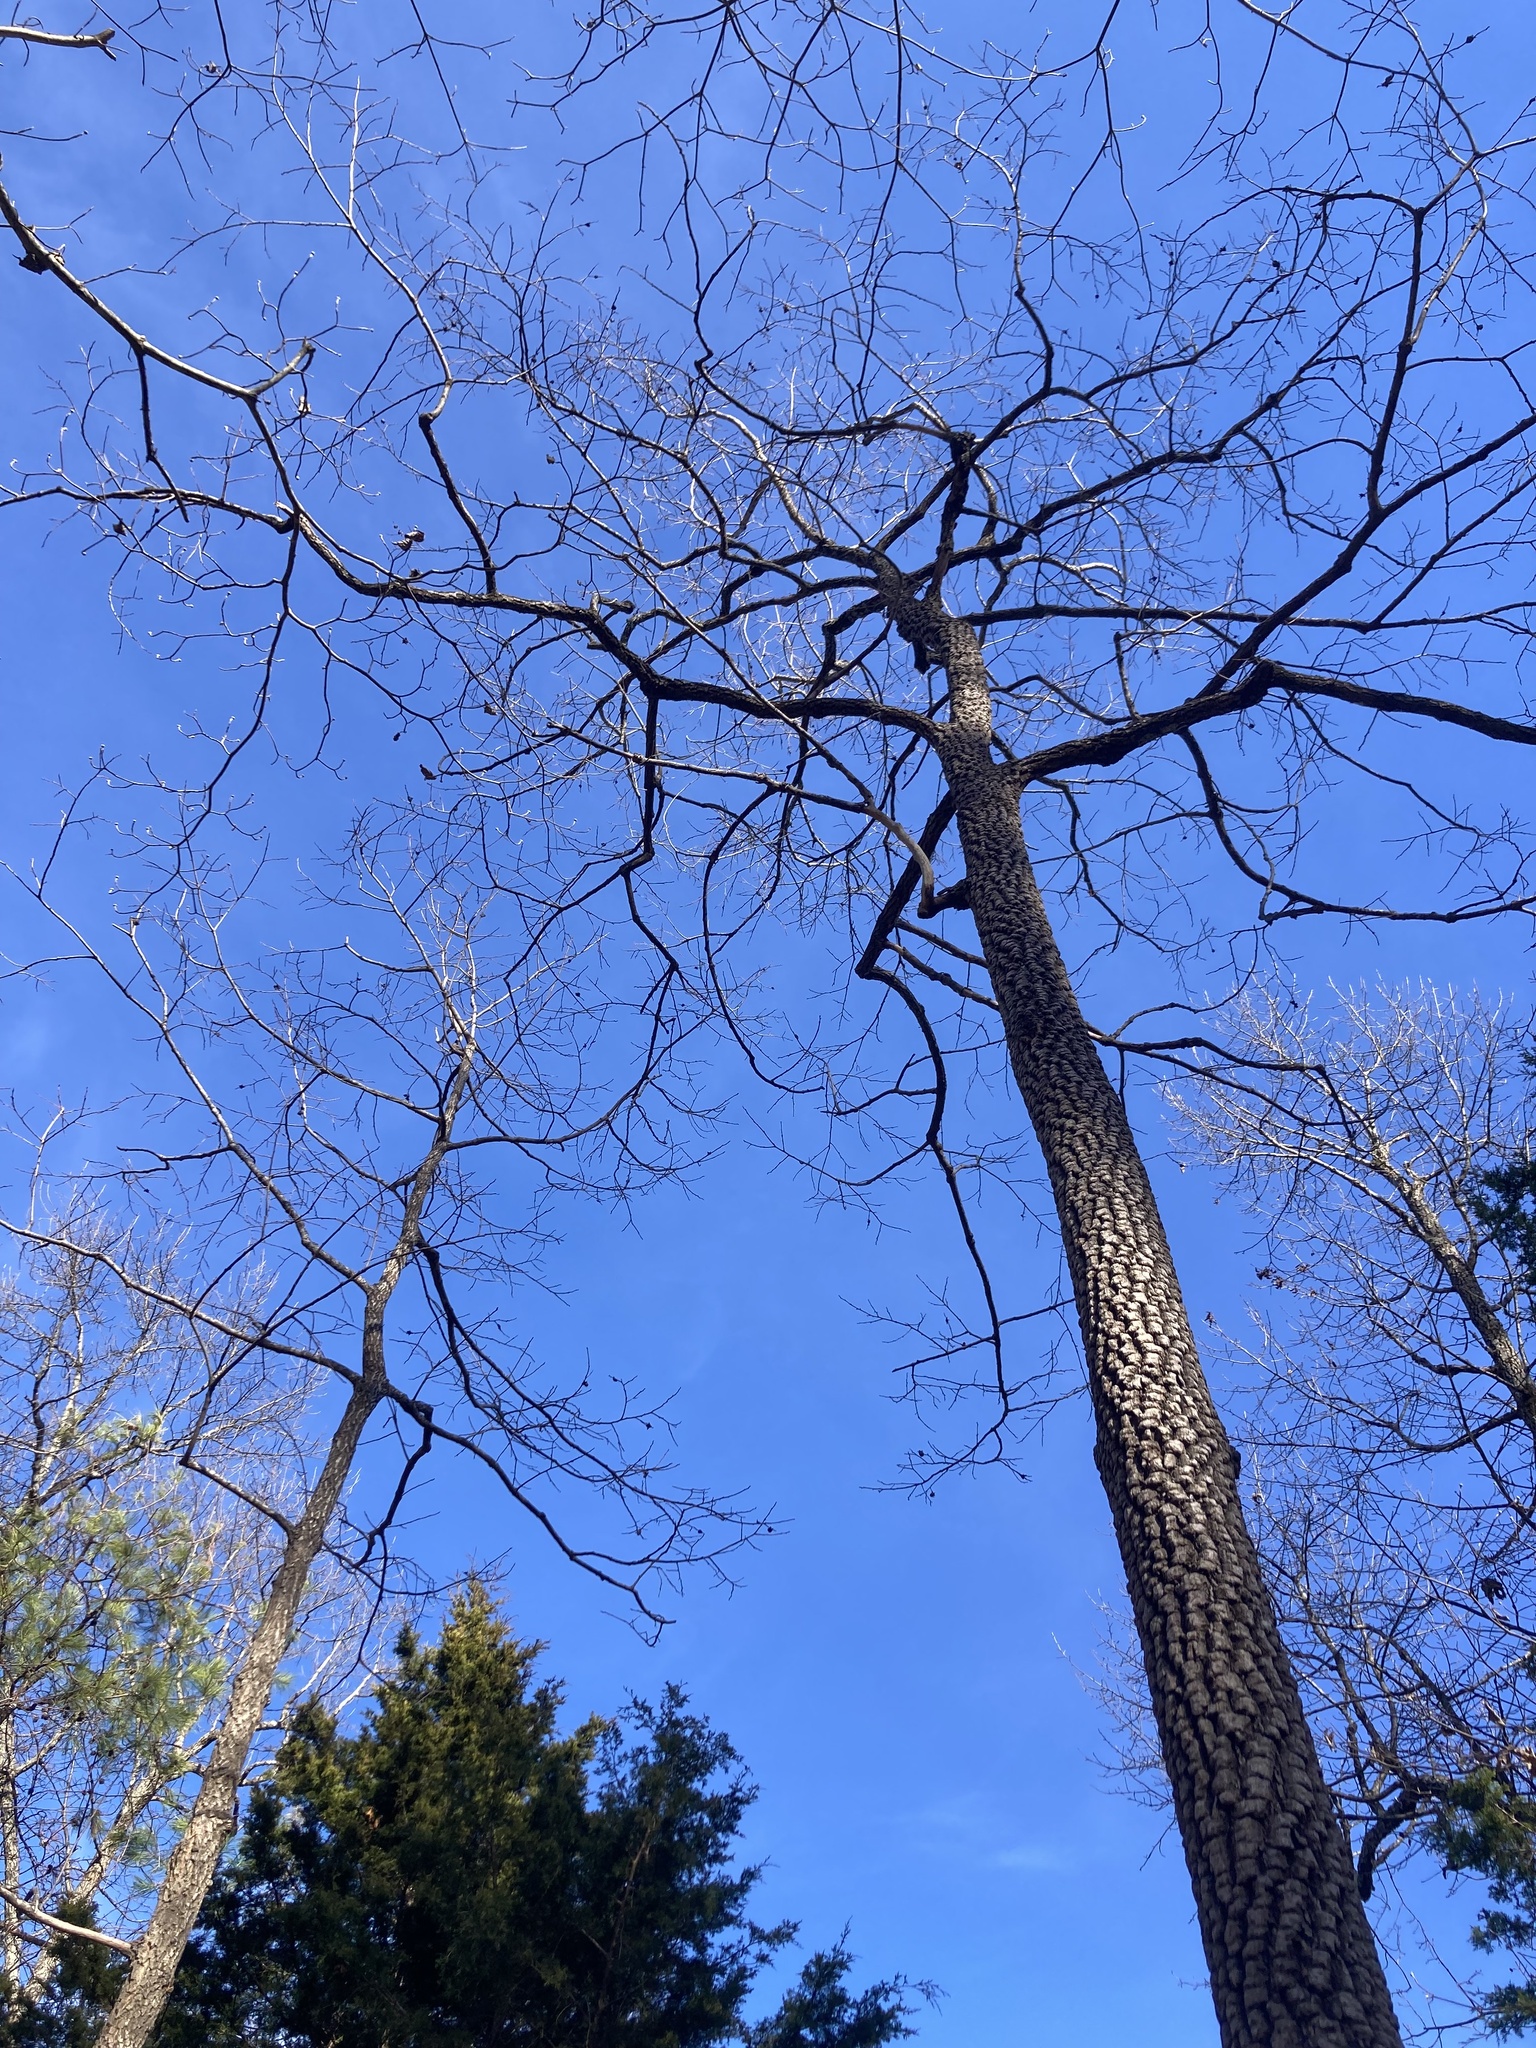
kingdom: Plantae
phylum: Tracheophyta
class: Magnoliopsida
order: Ericales
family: Ebenaceae
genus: Diospyros
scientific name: Diospyros virginiana
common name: Persimmon
